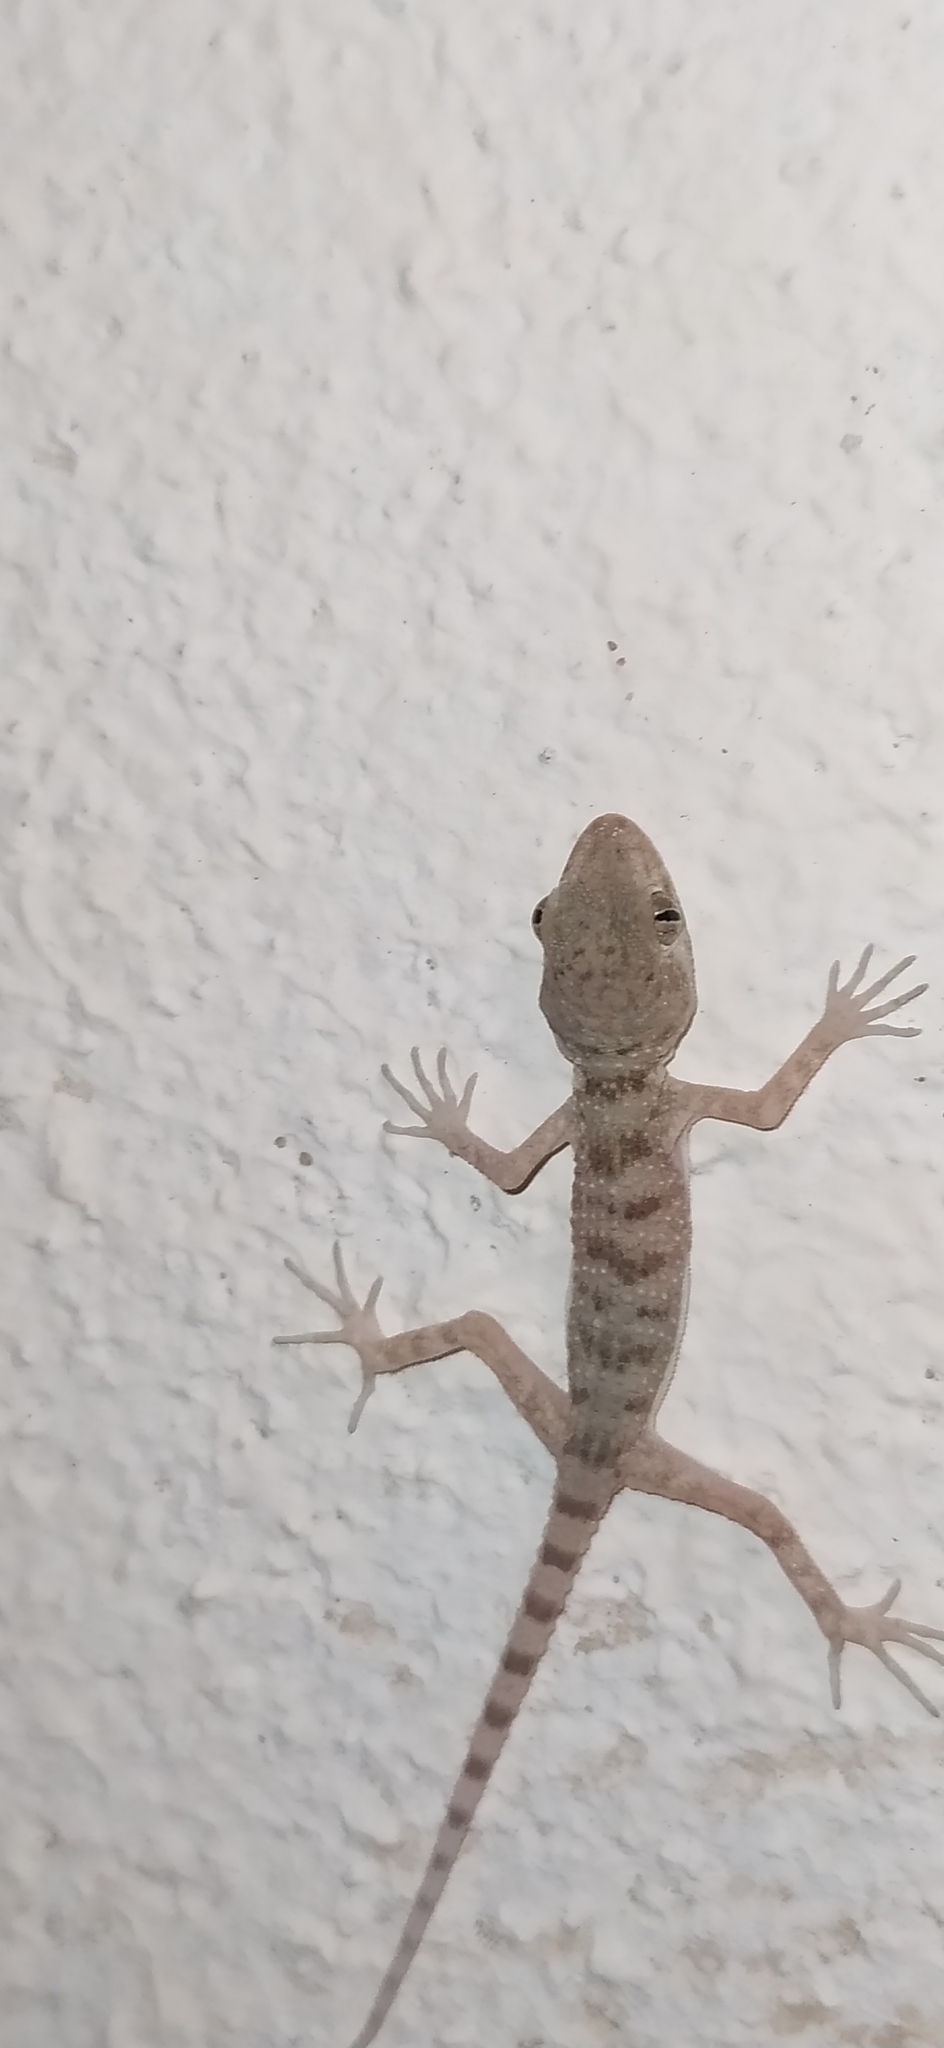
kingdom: Animalia
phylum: Chordata
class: Squamata
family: Gekkonidae
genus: Tenuidactylus
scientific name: Tenuidactylus fedtschenkoi
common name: Turkestan thin-toed gecko
